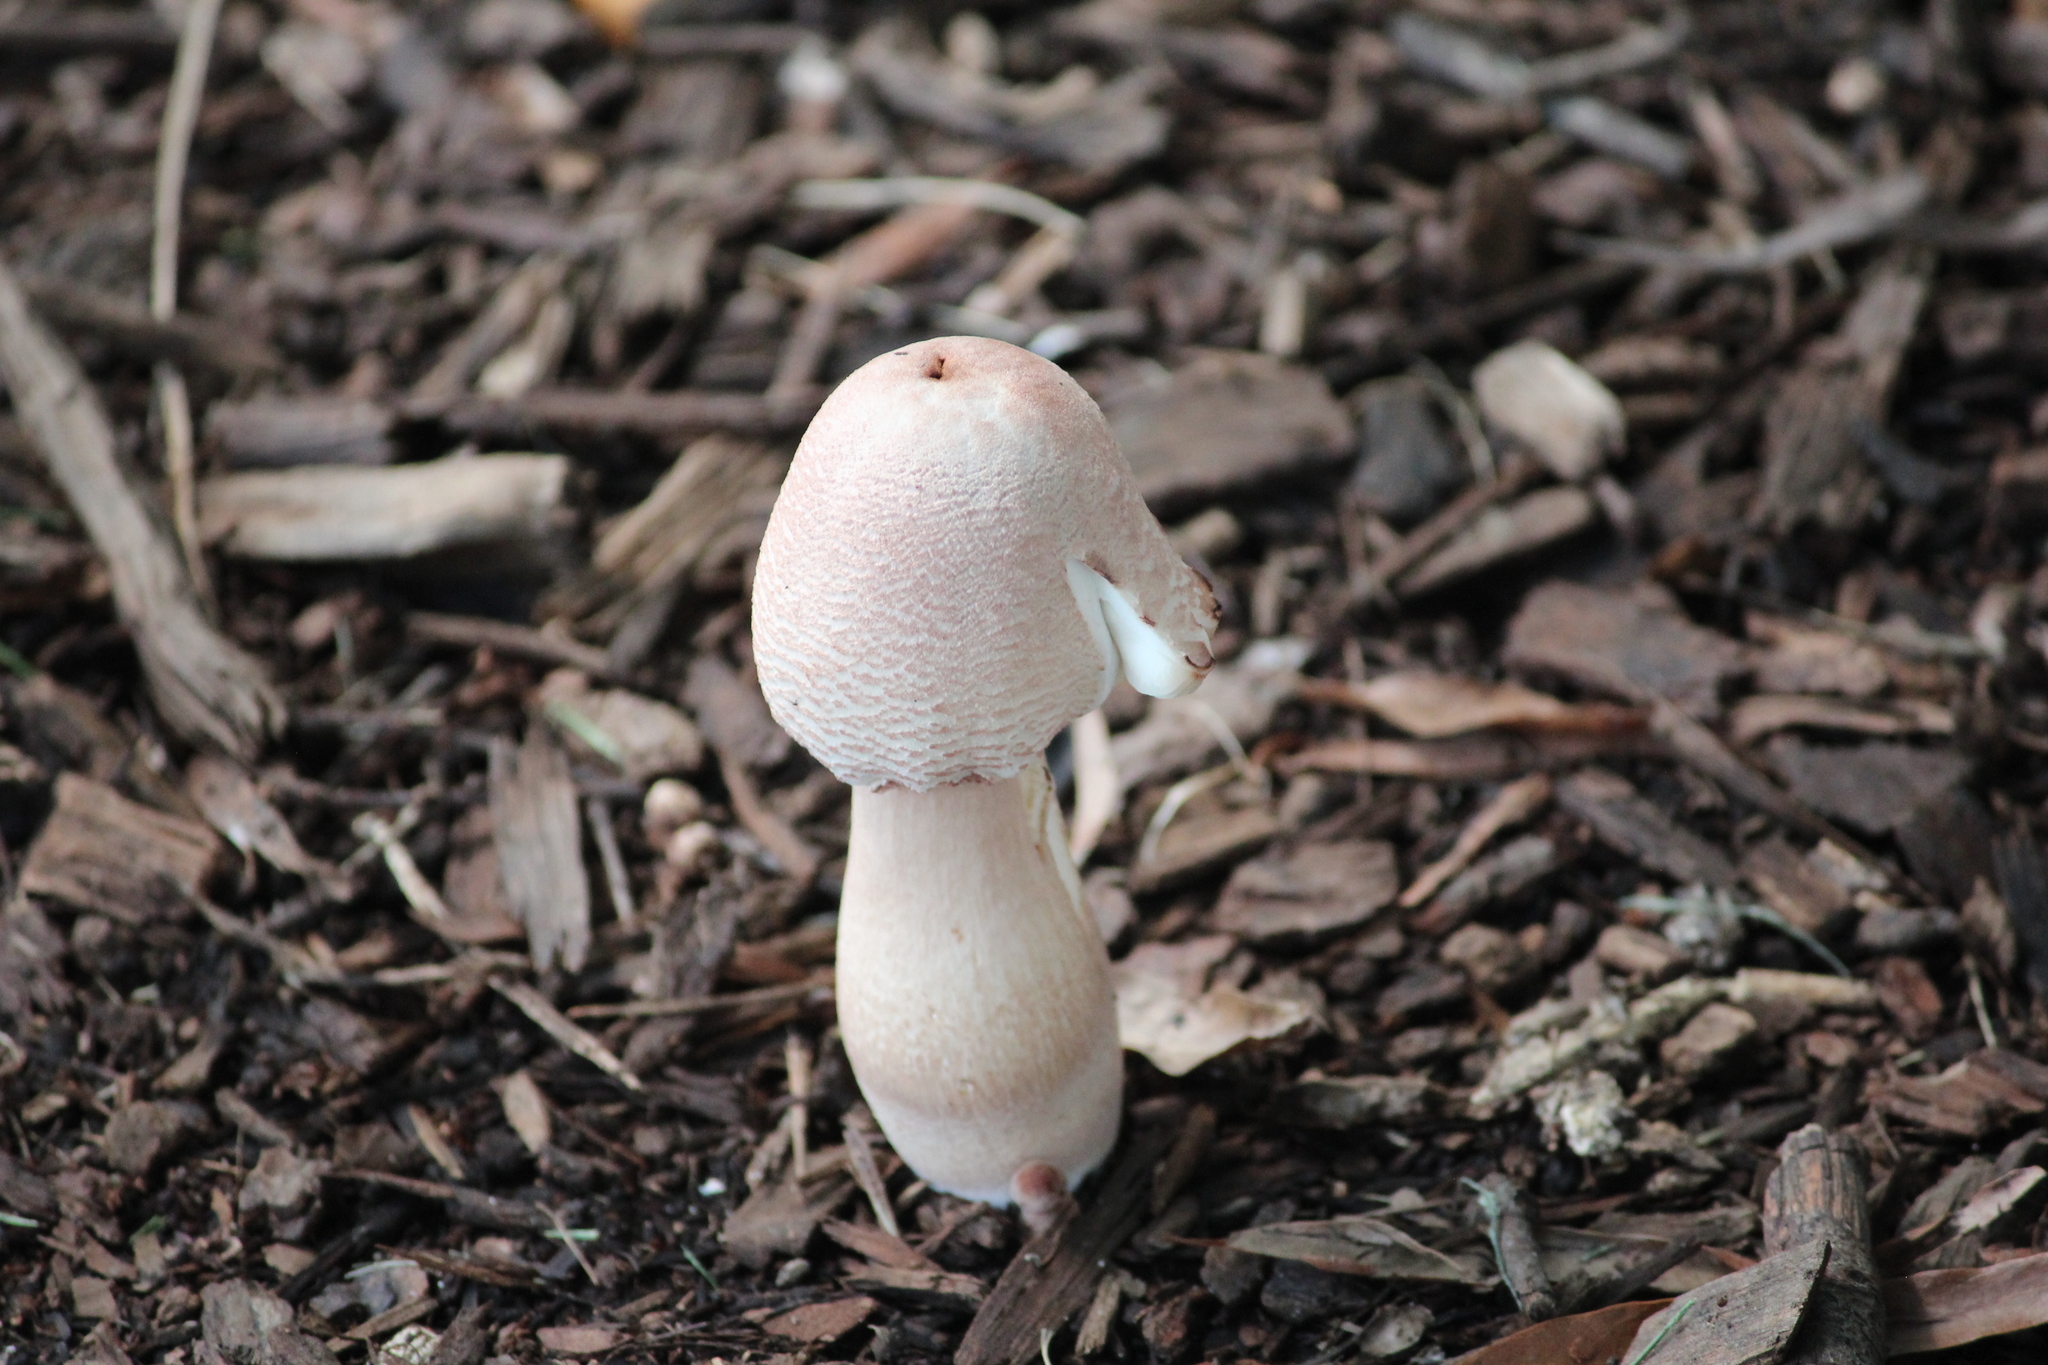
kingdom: Fungi
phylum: Basidiomycota
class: Agaricomycetes
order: Agaricales
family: Agaricaceae
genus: Leucoagaricus
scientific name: Leucoagaricus americanus
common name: Reddening lepiota
